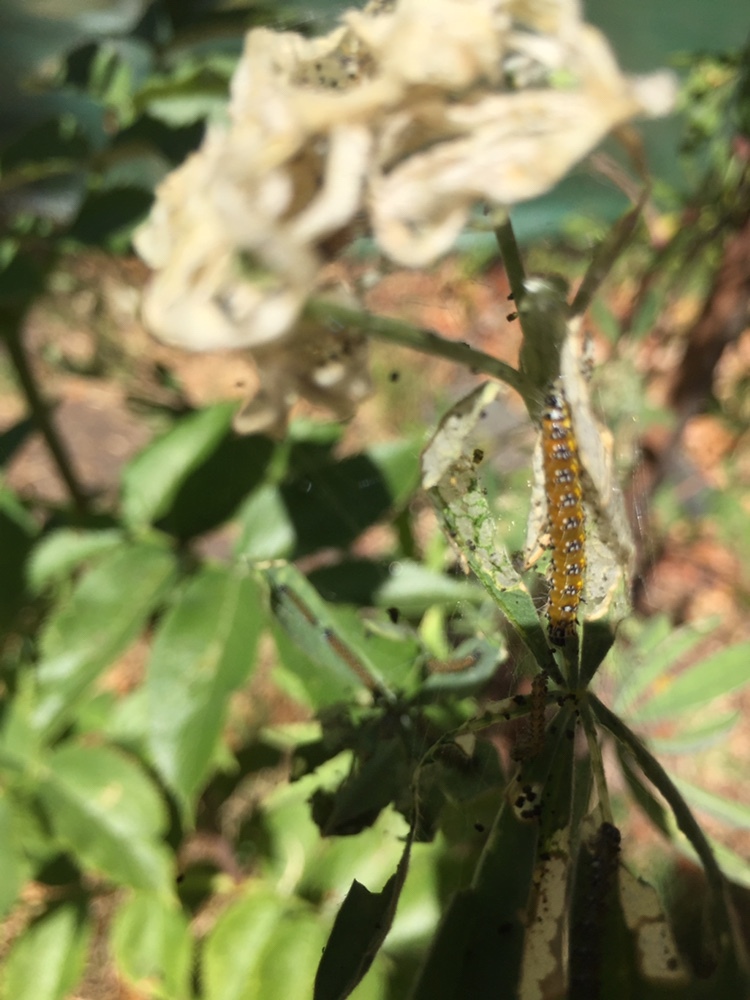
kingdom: Animalia
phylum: Arthropoda
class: Insecta
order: Lepidoptera
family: Crambidae
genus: Uresiphita
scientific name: Uresiphita reversalis
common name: Genista broom moth
